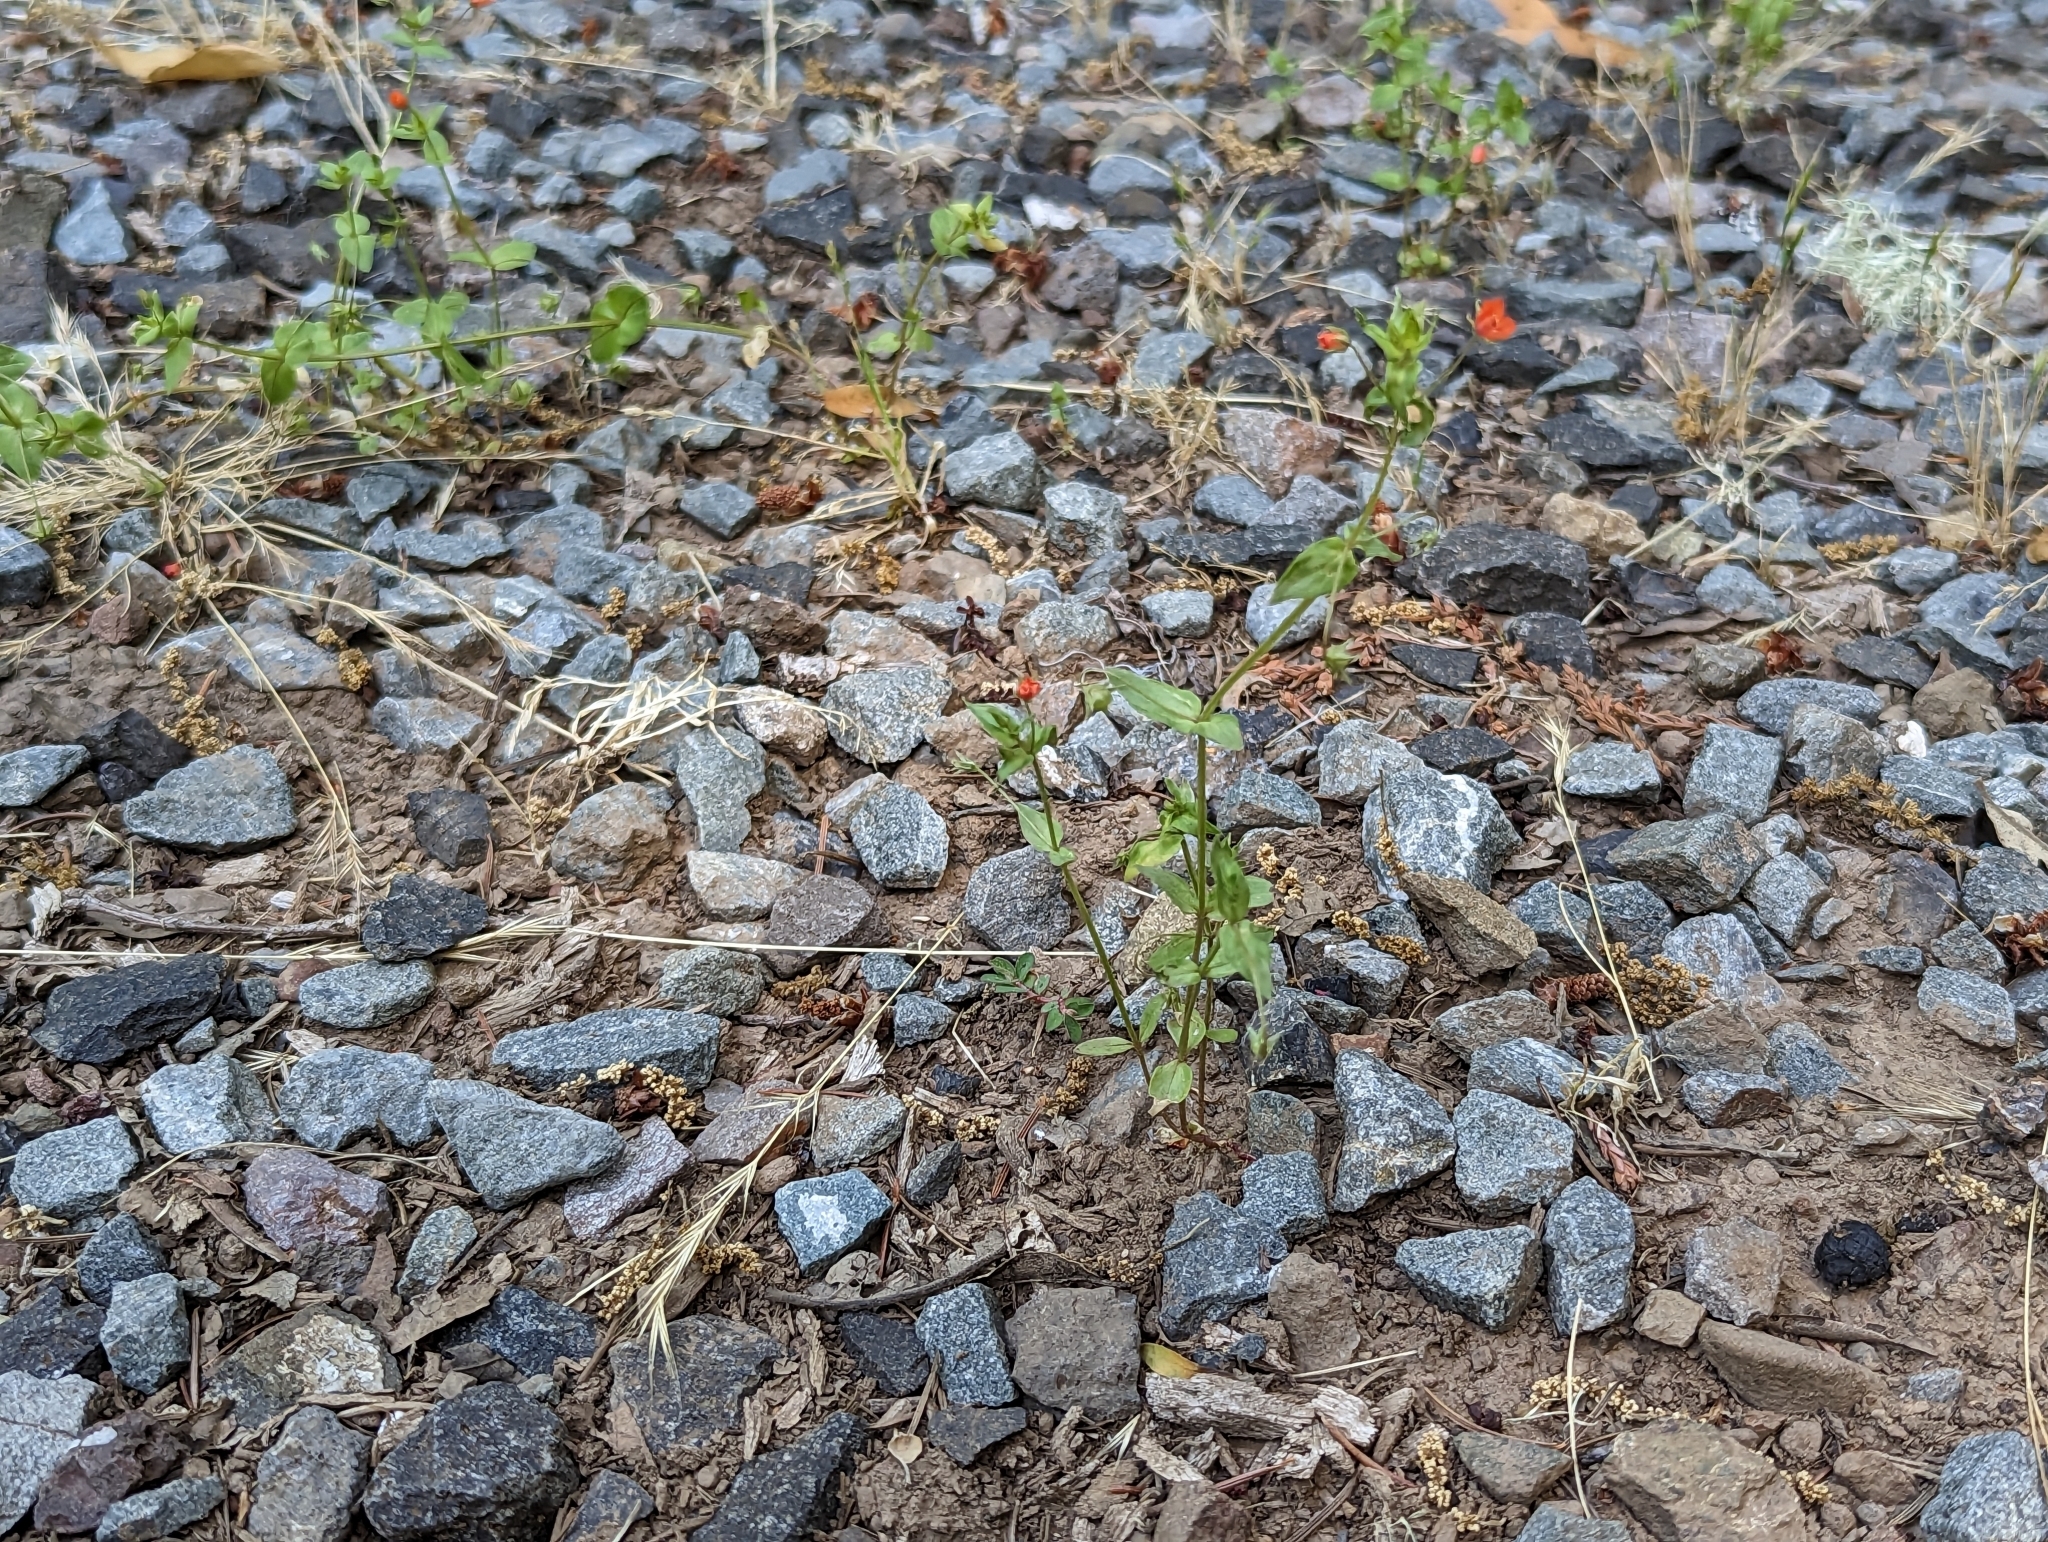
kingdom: Plantae
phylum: Tracheophyta
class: Magnoliopsida
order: Ericales
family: Primulaceae
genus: Lysimachia
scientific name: Lysimachia arvensis
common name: Scarlet pimpernel
